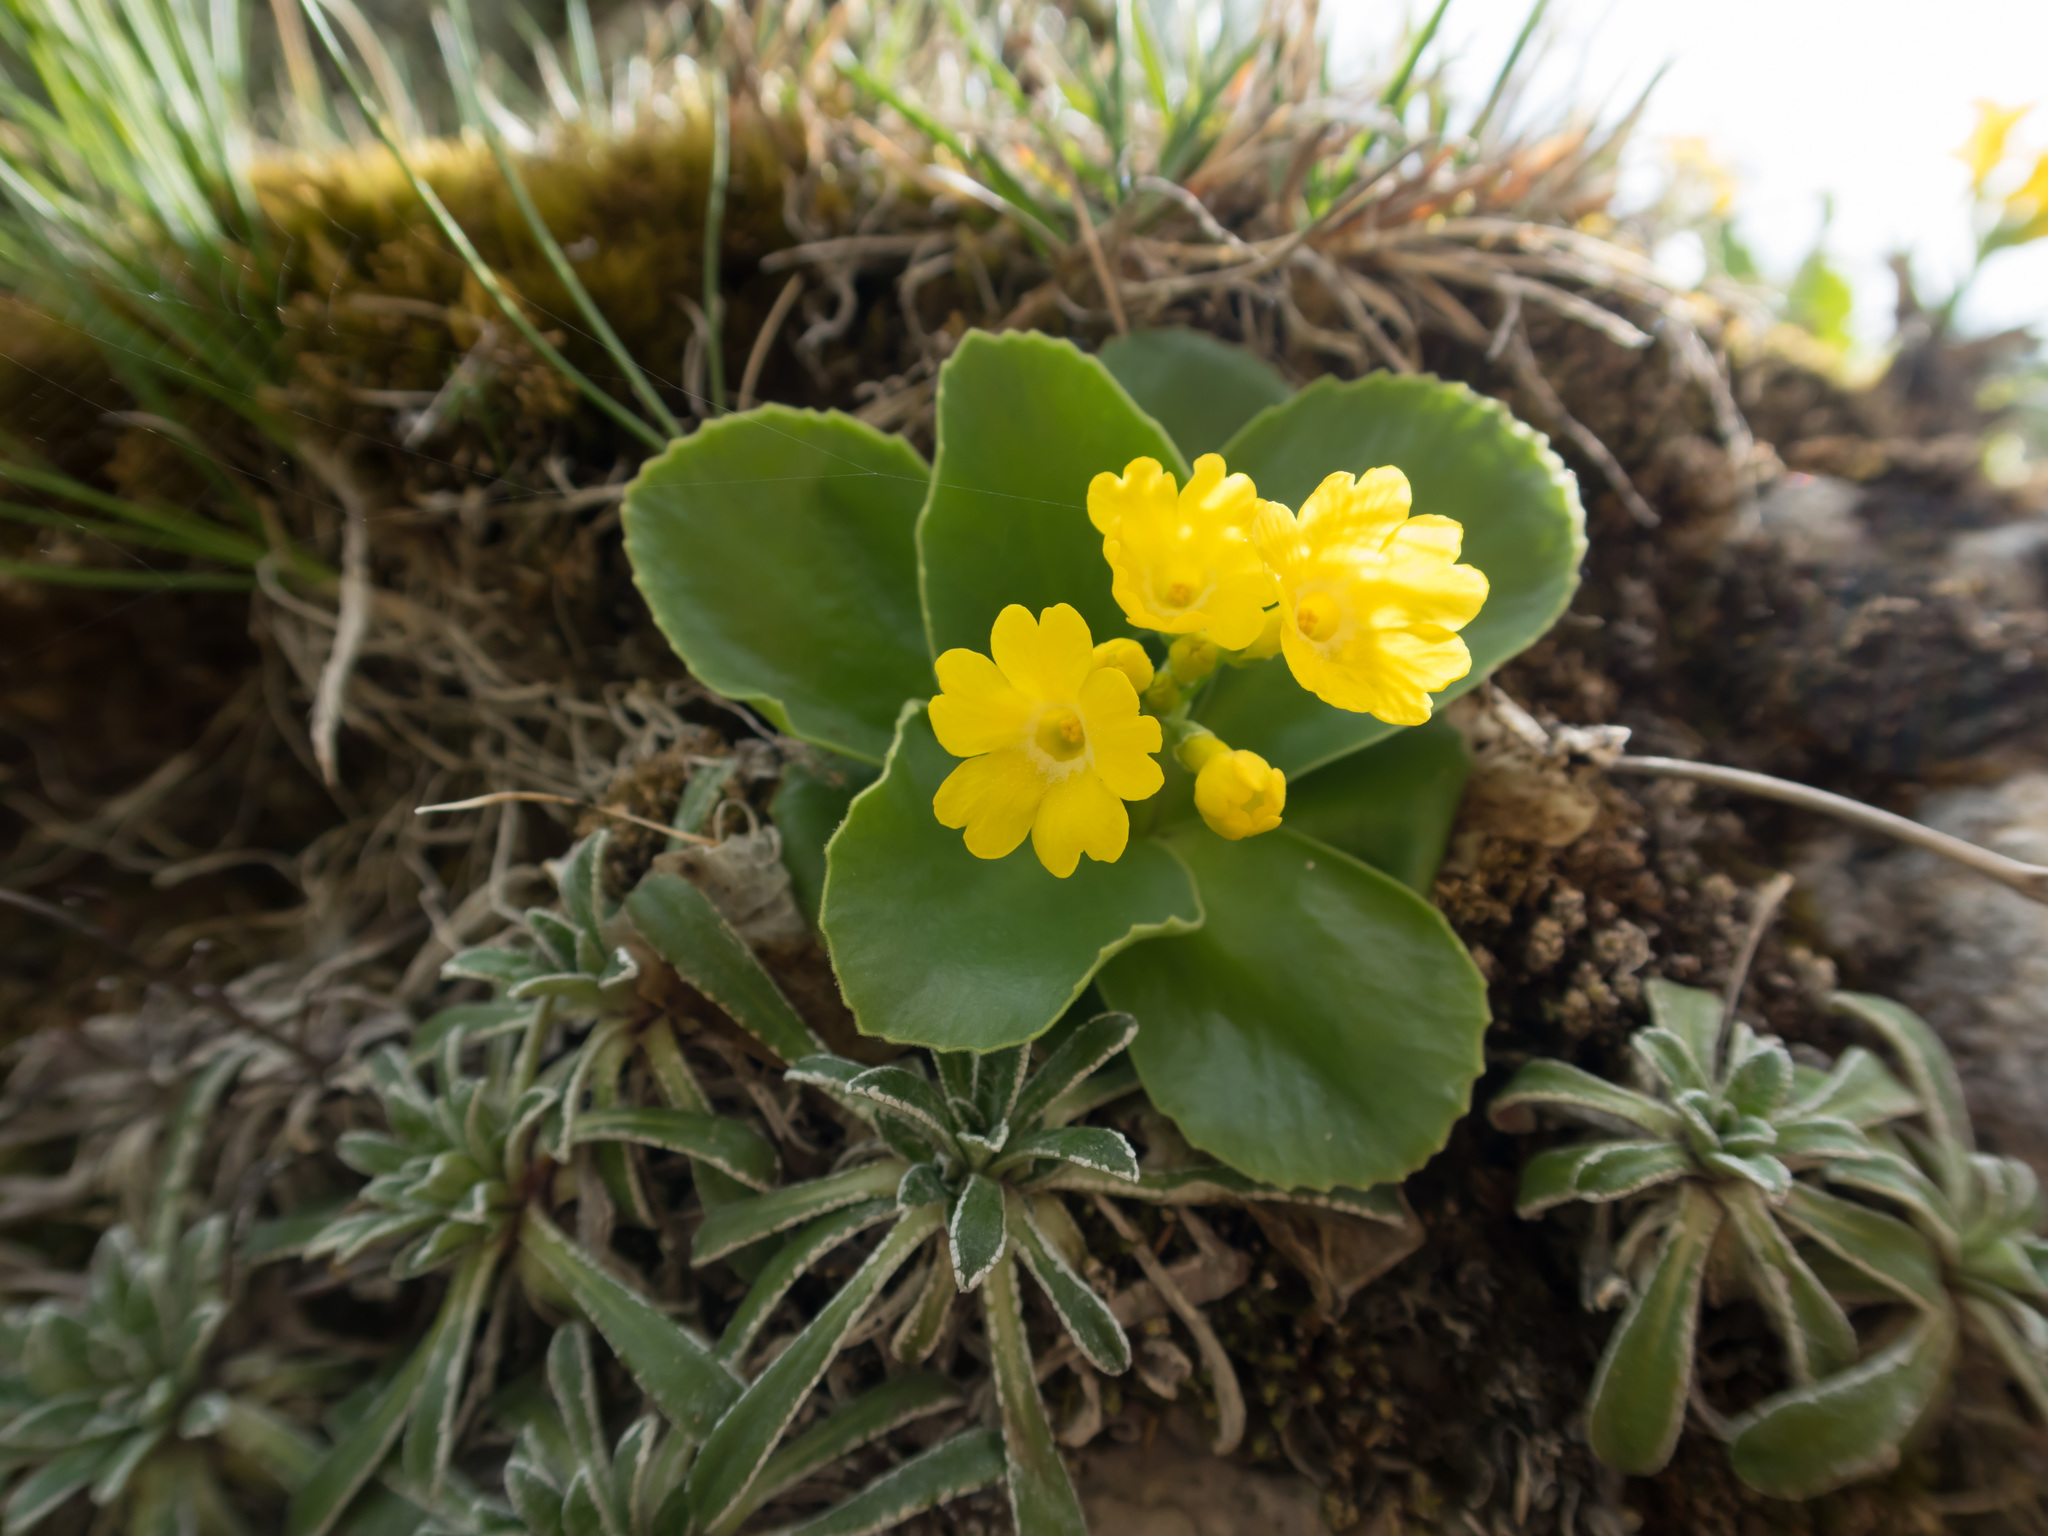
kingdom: Plantae
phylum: Tracheophyta
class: Magnoliopsida
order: Ericales
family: Primulaceae
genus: Primula
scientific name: Primula auricula
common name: Auricula
